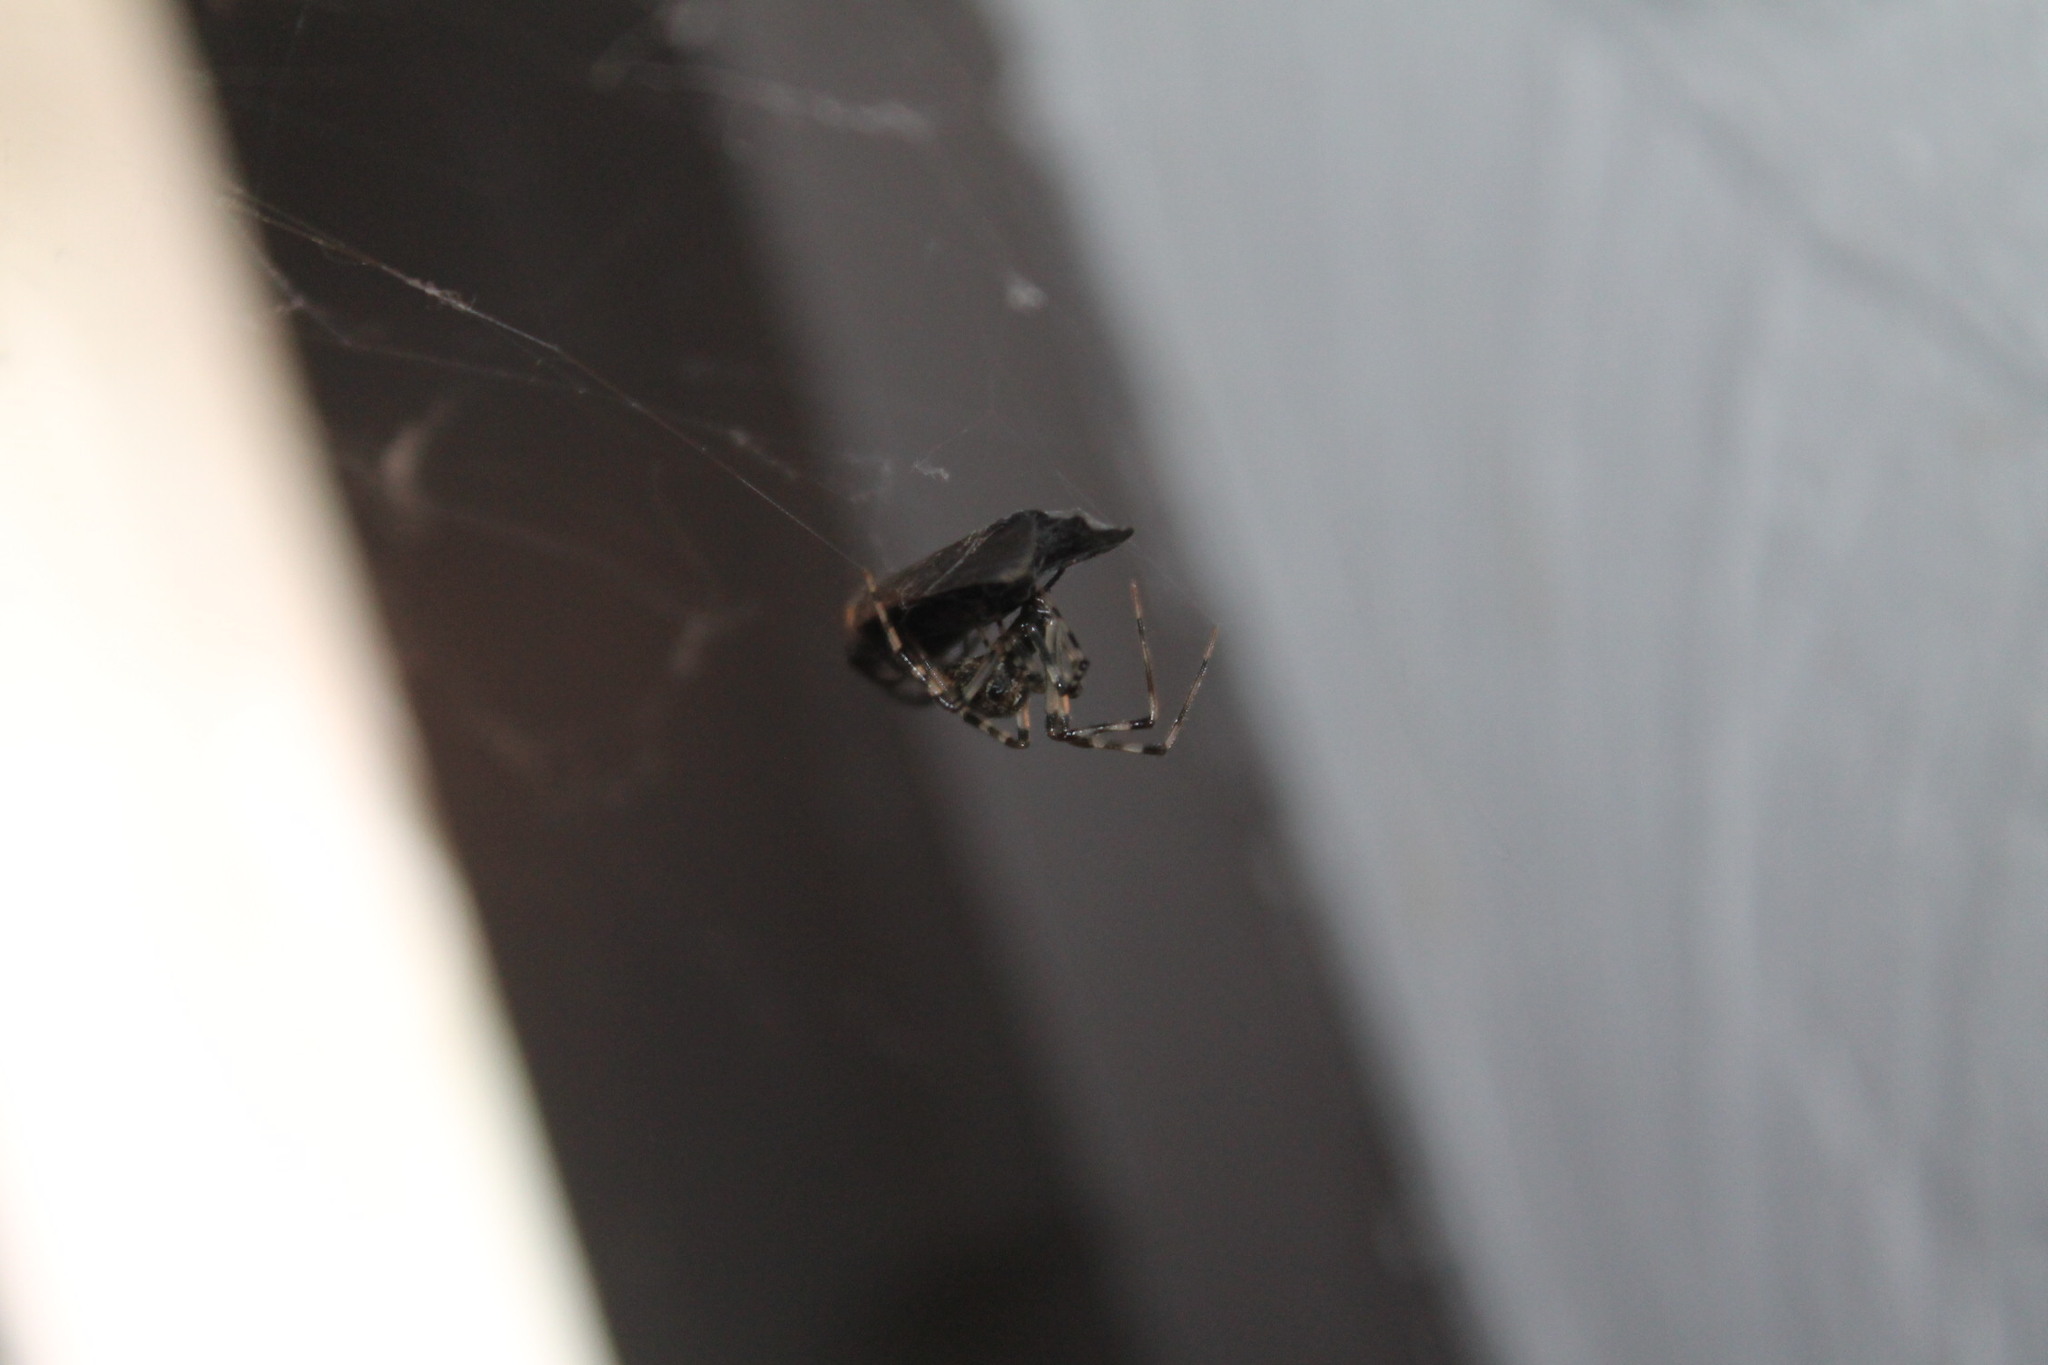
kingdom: Animalia
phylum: Arthropoda
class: Insecta
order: Lepidoptera
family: Erebidae
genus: Cisseps
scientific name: Cisseps fulvicollis
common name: Yellow-collared scape moth
